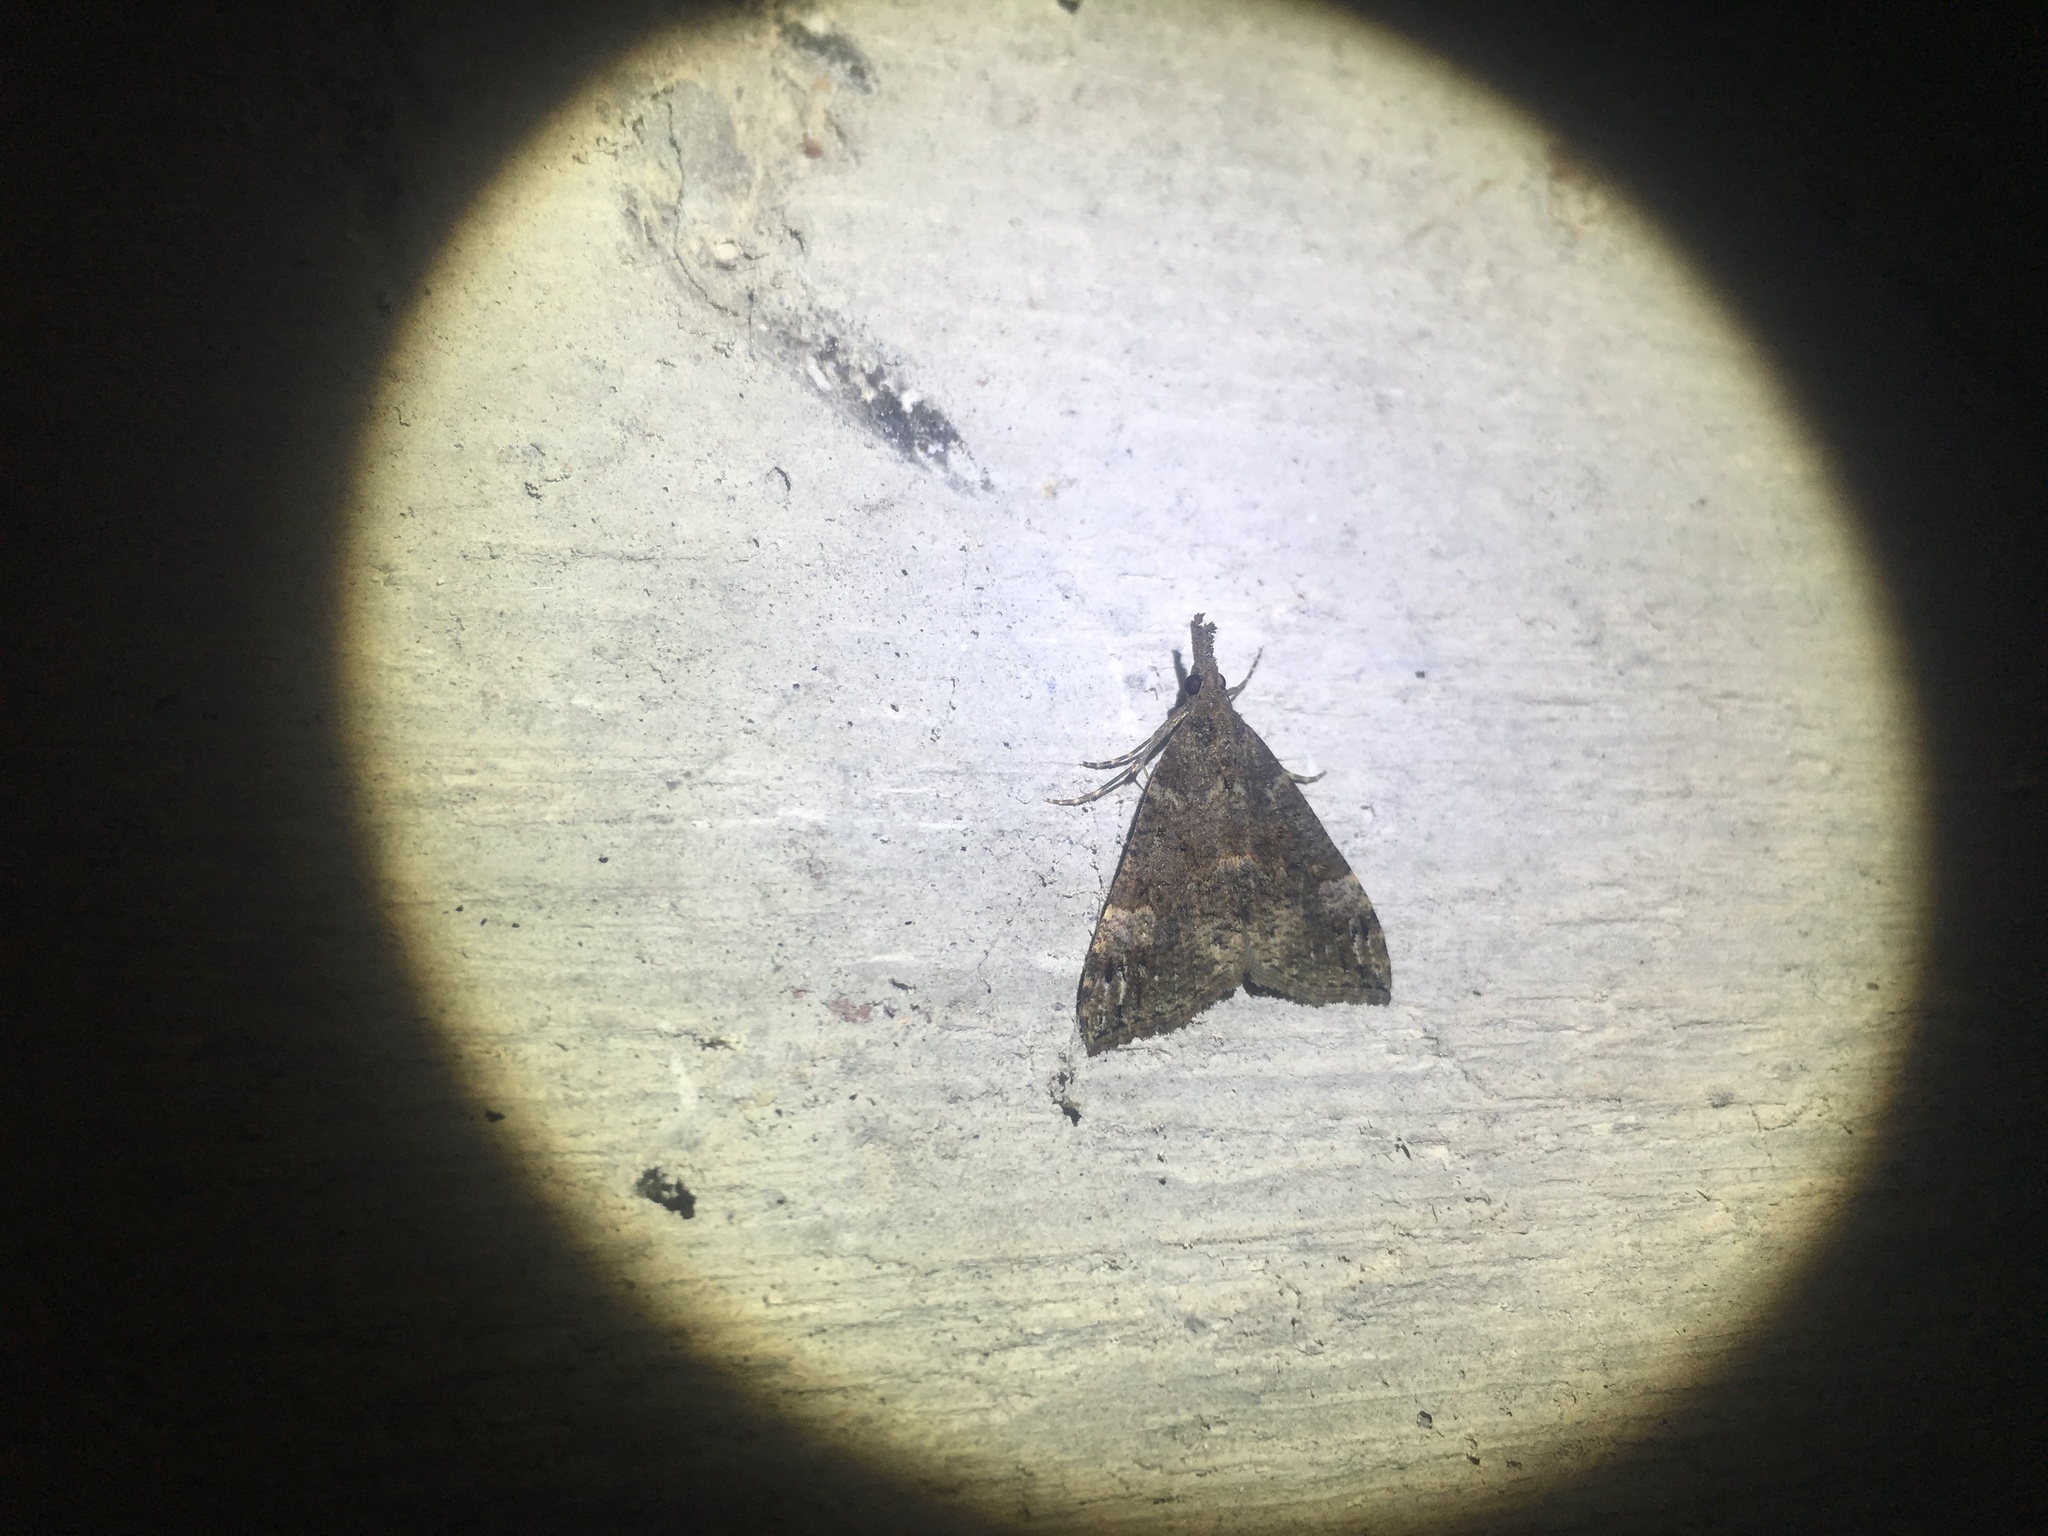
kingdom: Animalia
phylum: Arthropoda
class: Insecta
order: Lepidoptera
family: Erebidae
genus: Hypena
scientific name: Hypena obsitalis
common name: Bloxworth snout
